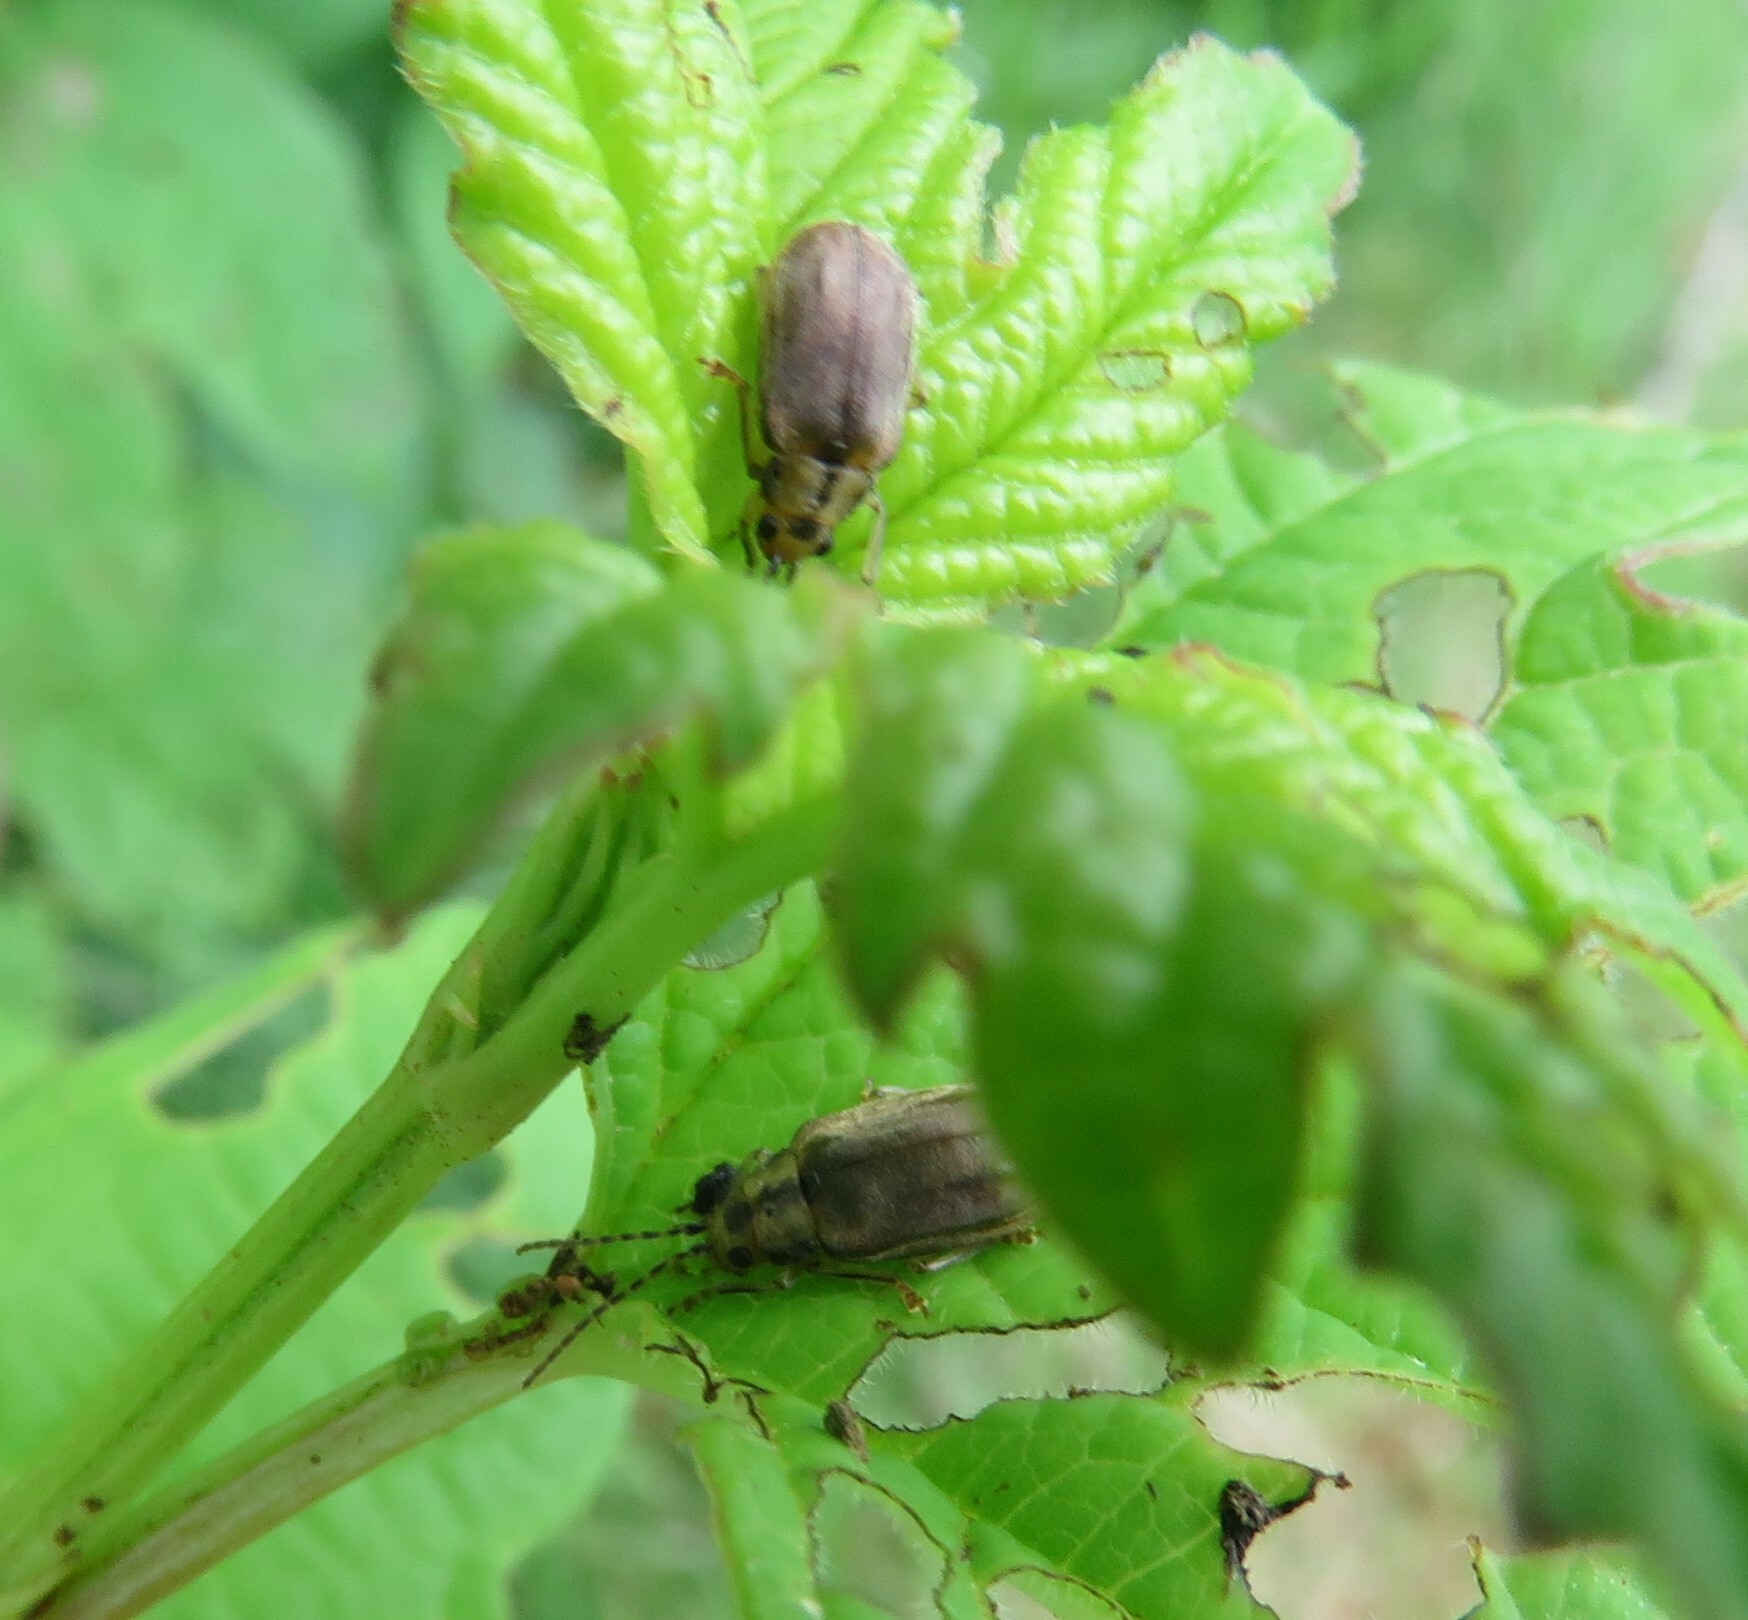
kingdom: Animalia
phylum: Arthropoda
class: Insecta
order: Coleoptera
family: Chrysomelidae
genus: Pyrrhalta
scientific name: Pyrrhalta viburni
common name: Guelder-rose leaf beetle
